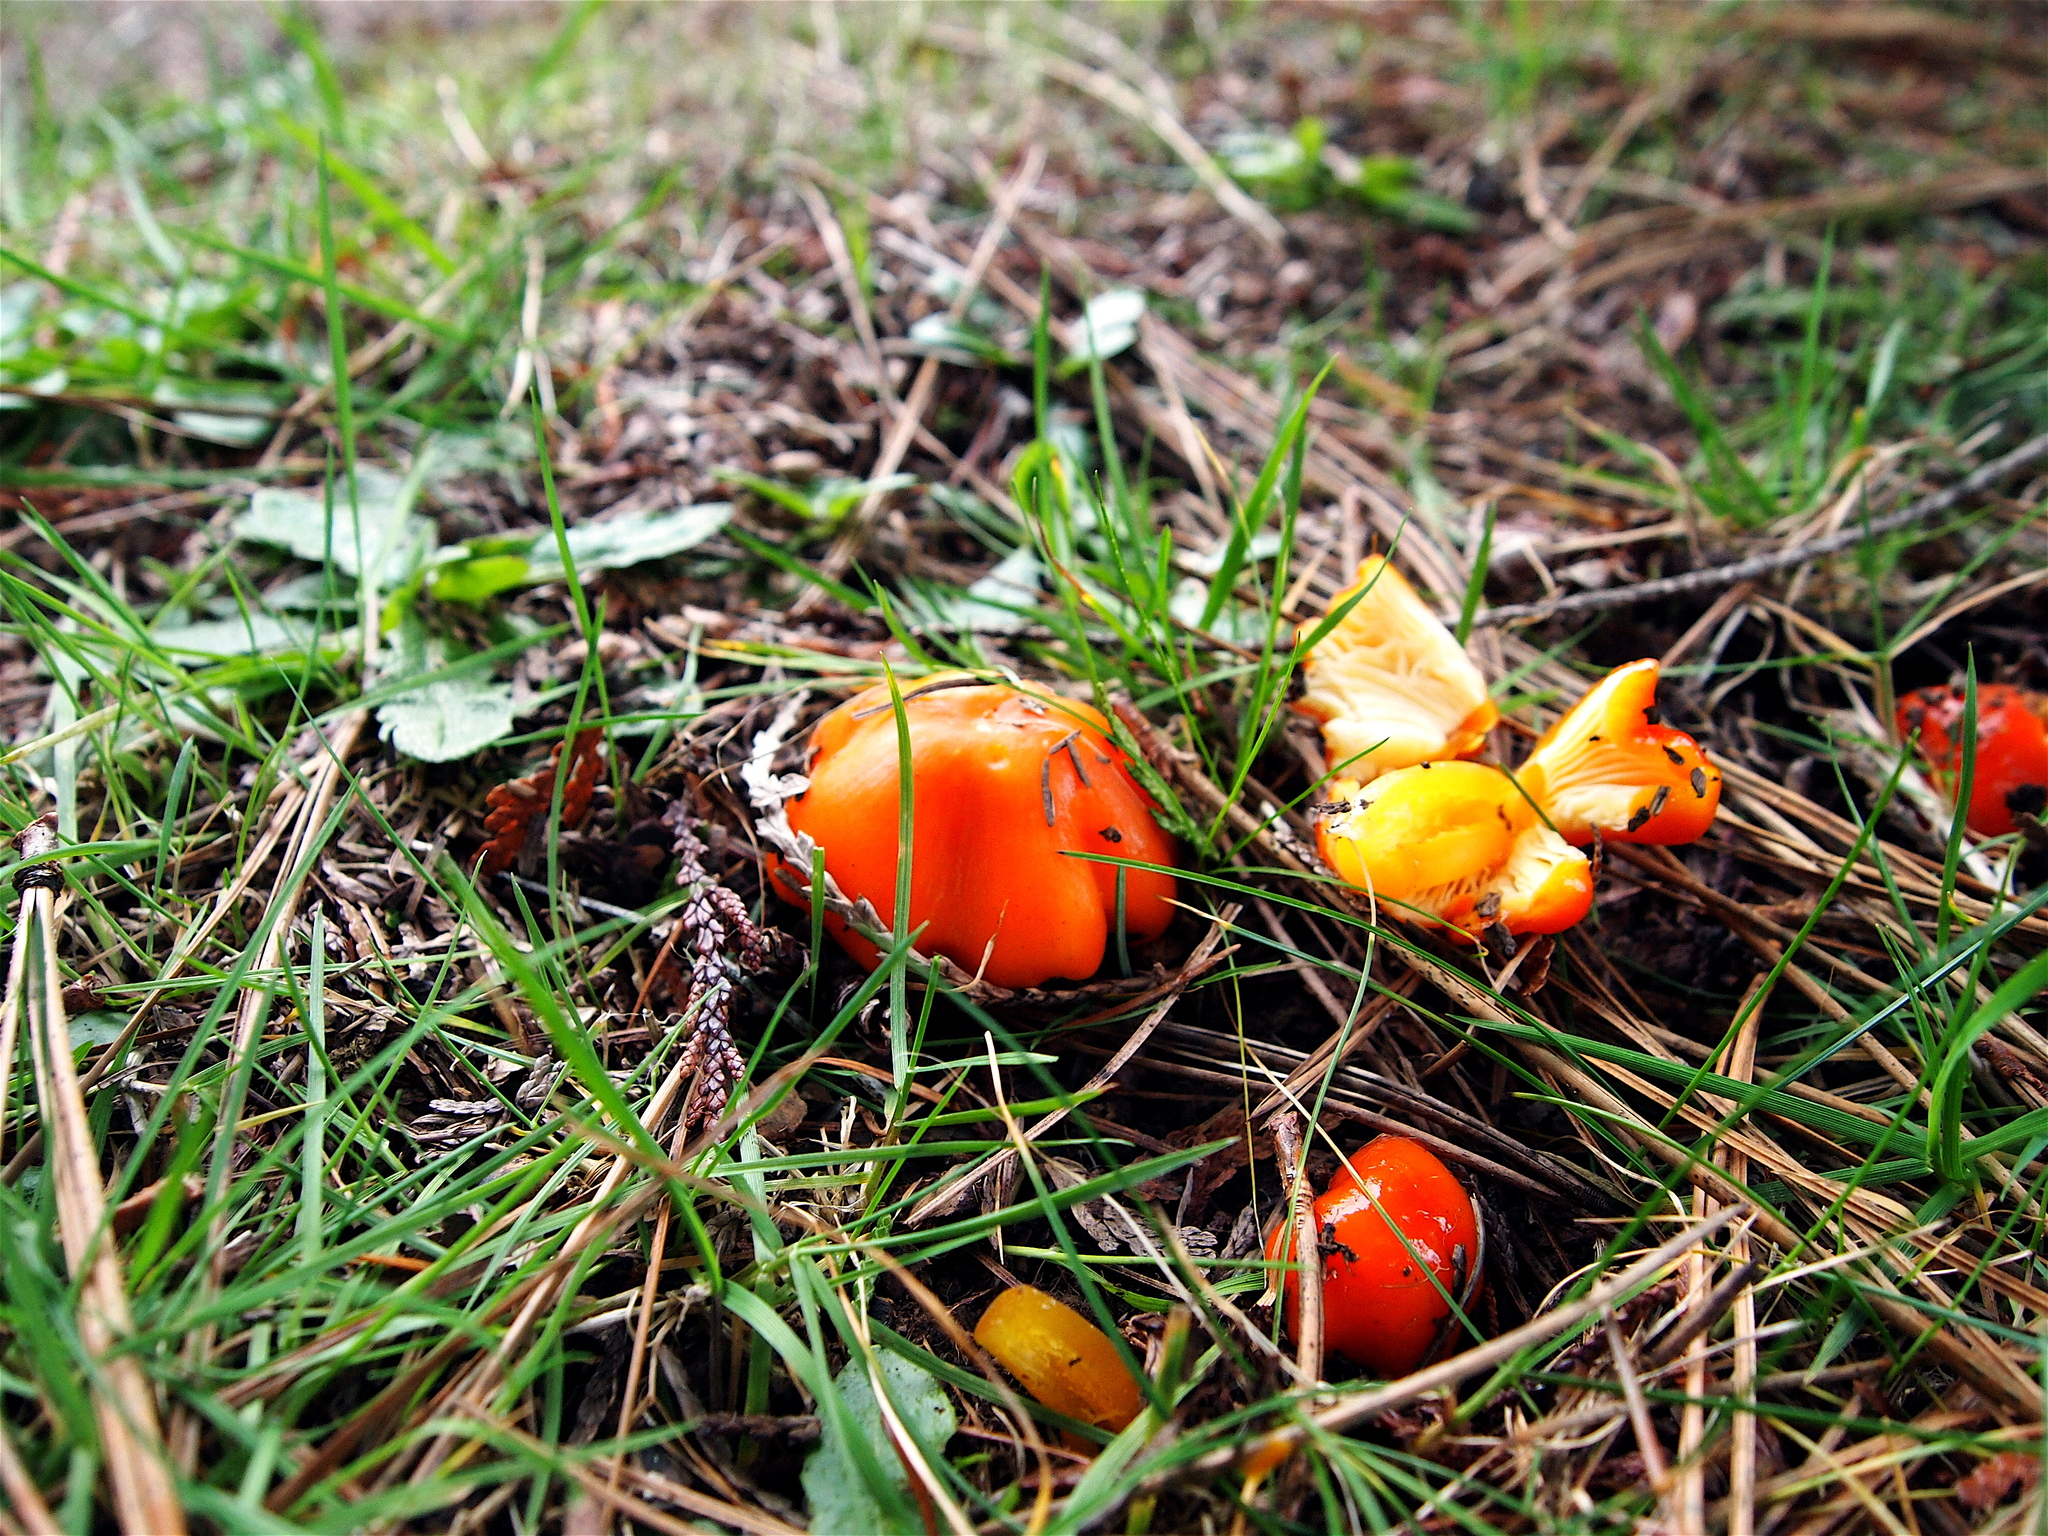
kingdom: Fungi
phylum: Basidiomycota
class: Agaricomycetes
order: Agaricales
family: Hygrophoraceae
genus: Hygrocybe
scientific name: Hygrocybe aurantiosplendens
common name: Orange waxcap
